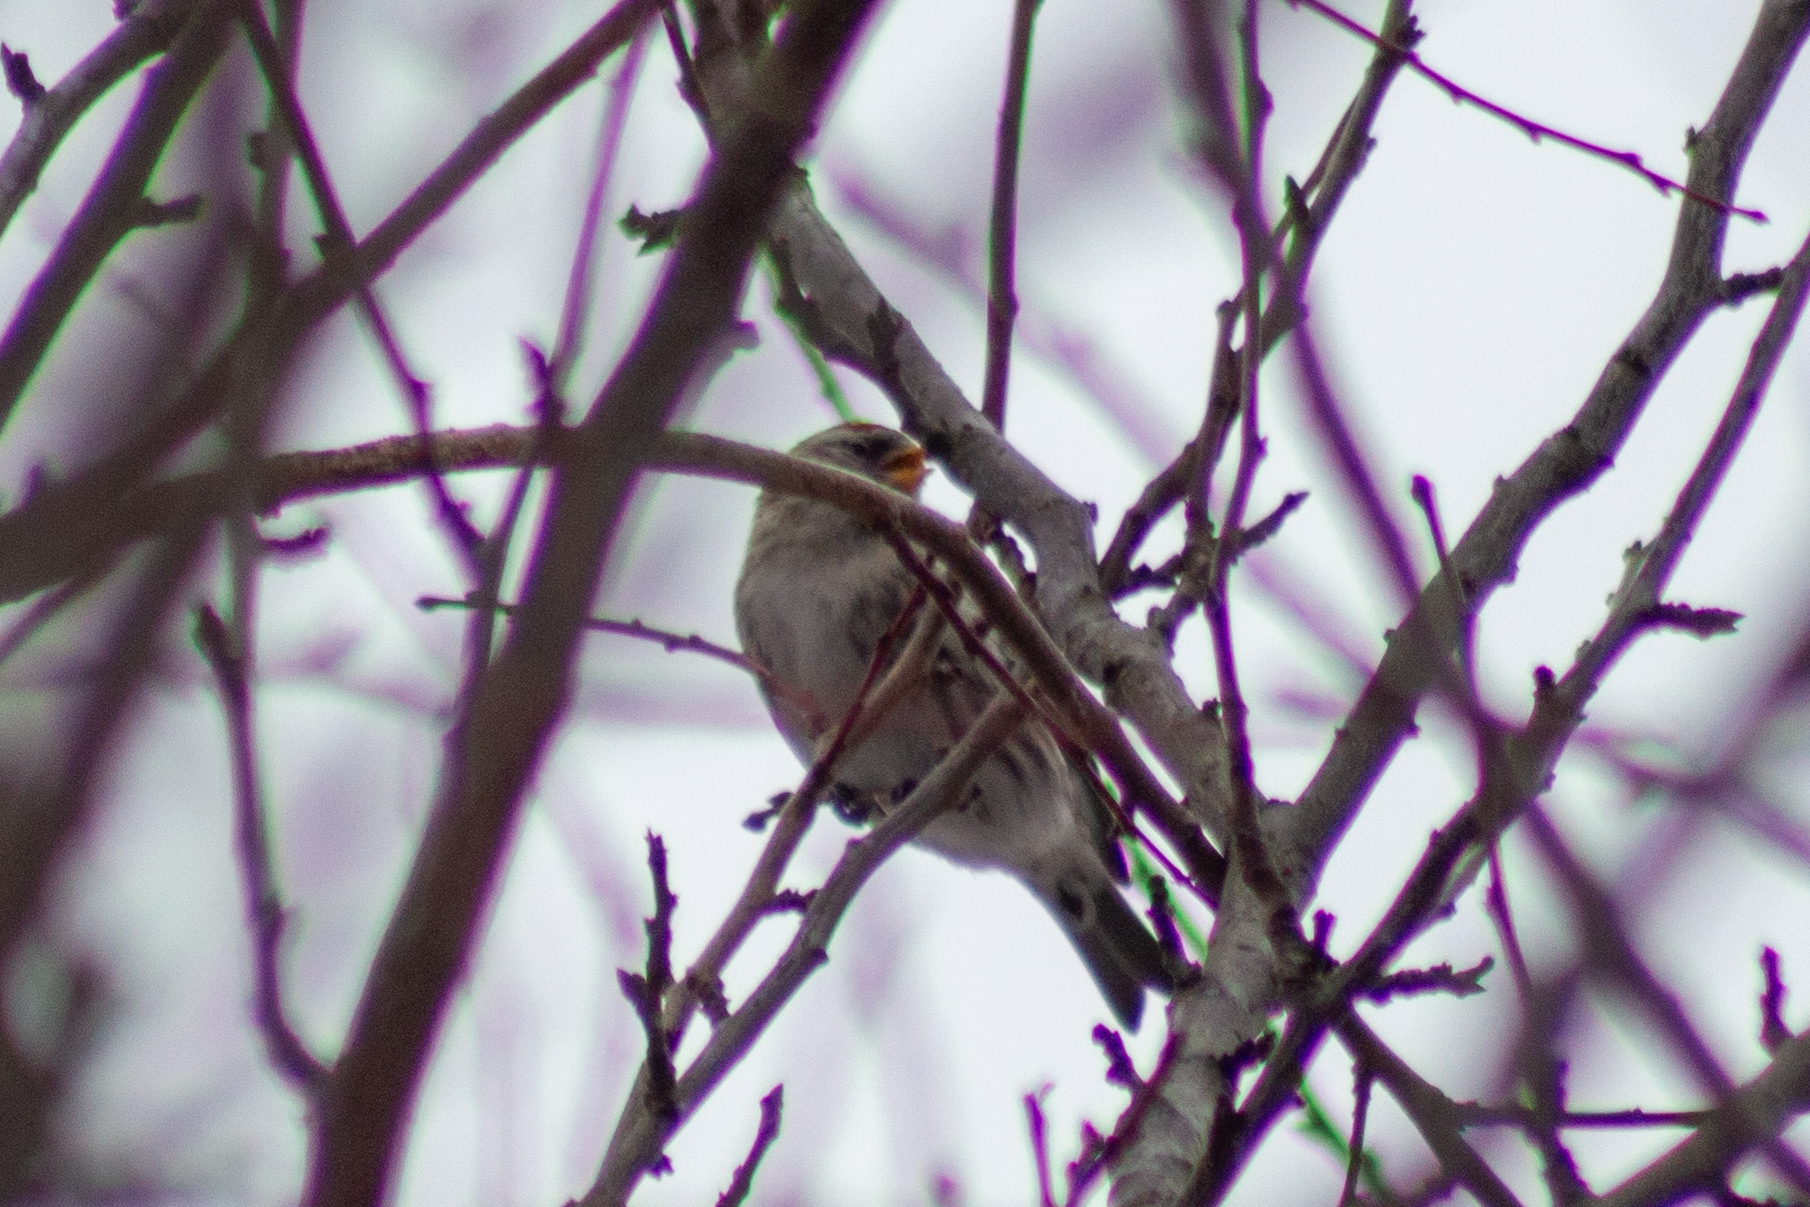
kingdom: Animalia
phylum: Chordata
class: Aves
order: Passeriformes
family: Fringillidae
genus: Acanthis
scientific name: Acanthis flammea
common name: Common redpoll
